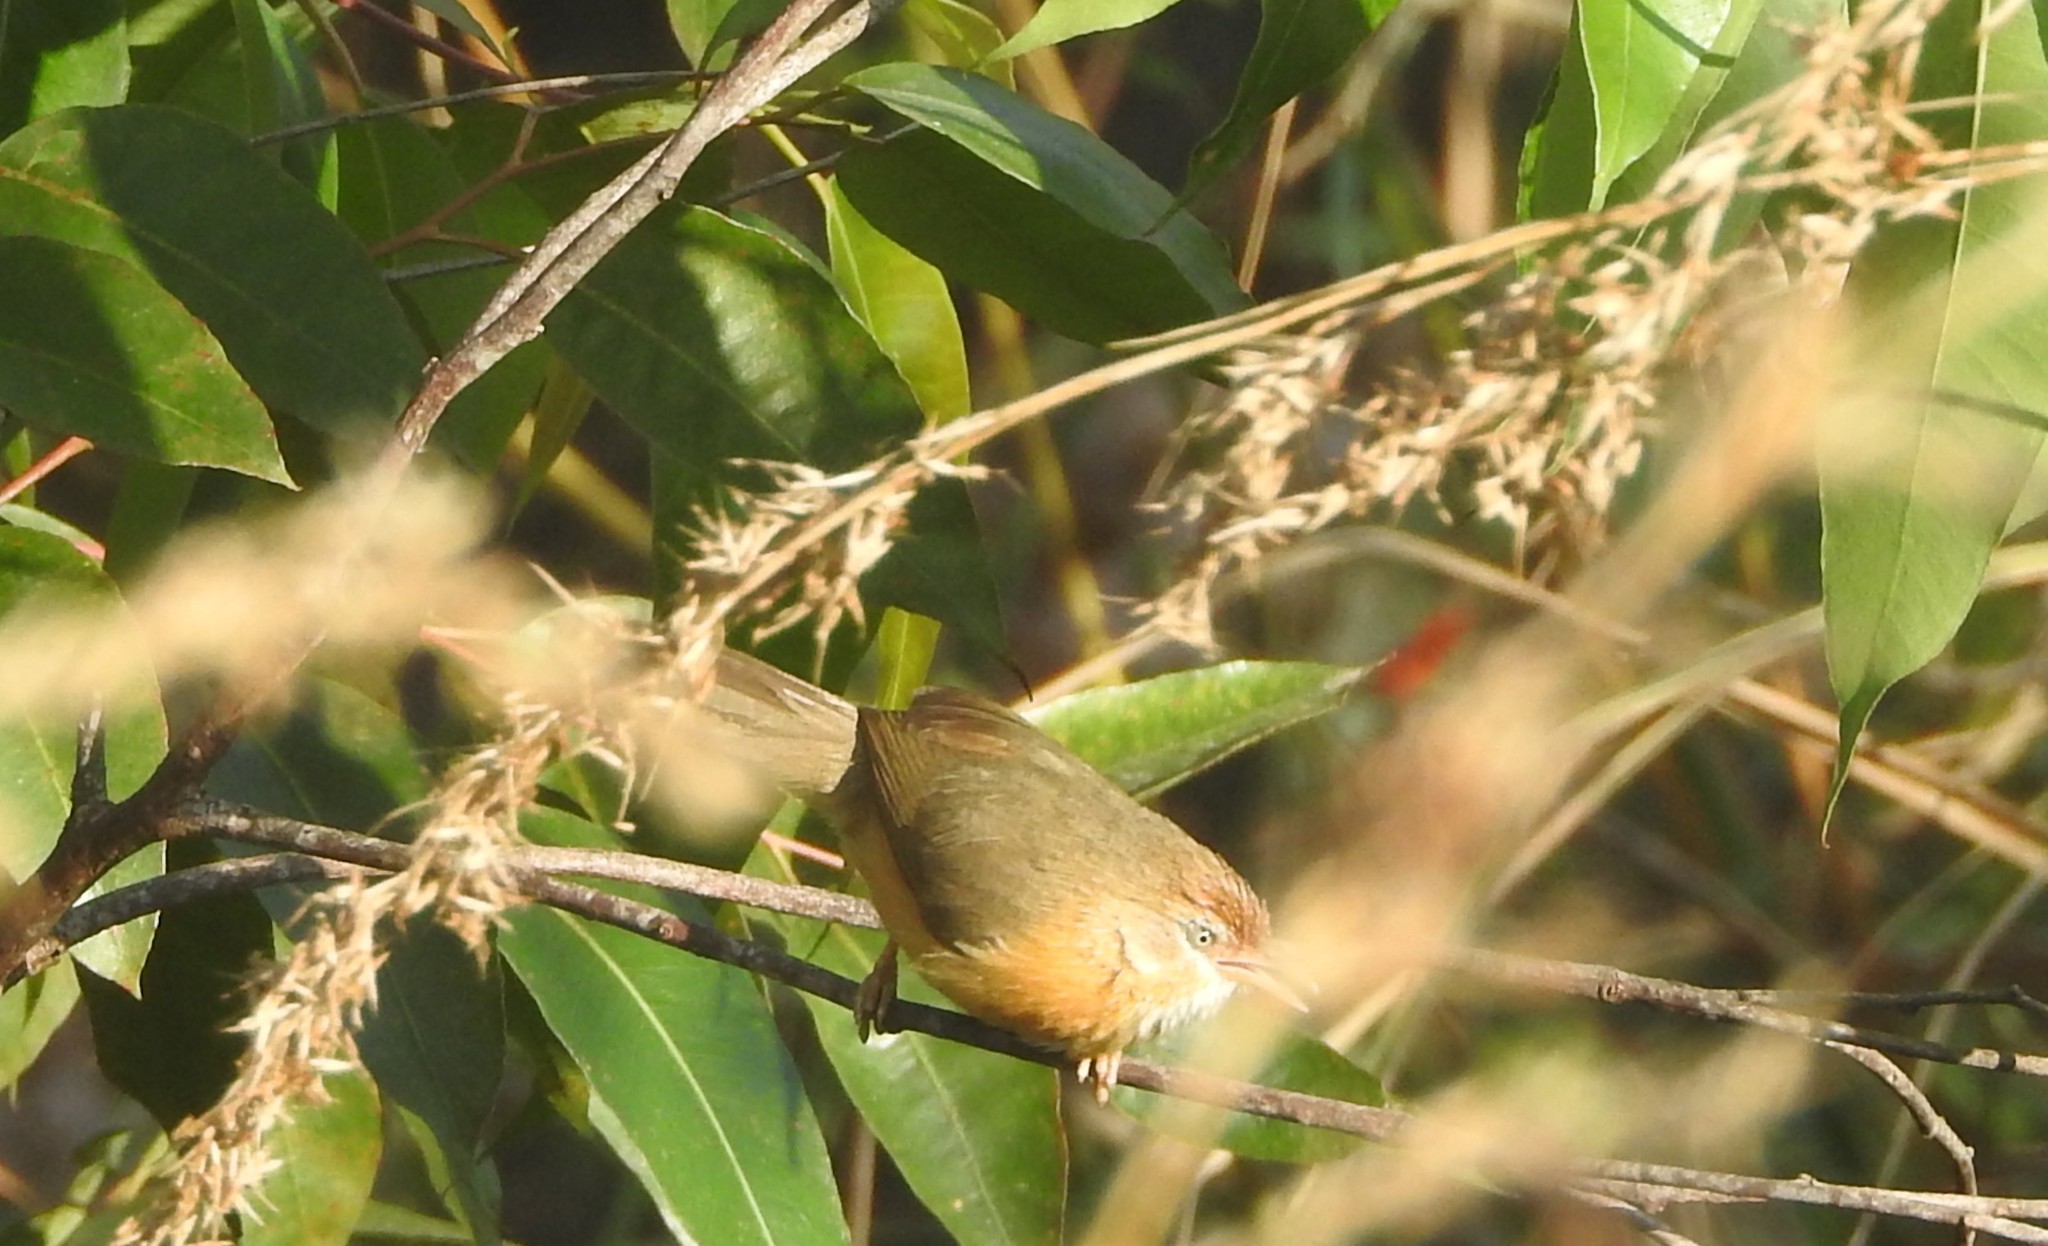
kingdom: Animalia
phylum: Chordata
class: Aves
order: Passeriformes
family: Timaliidae
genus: Dumetia
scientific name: Dumetia hyperythra
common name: Tawny-bellied babbler
